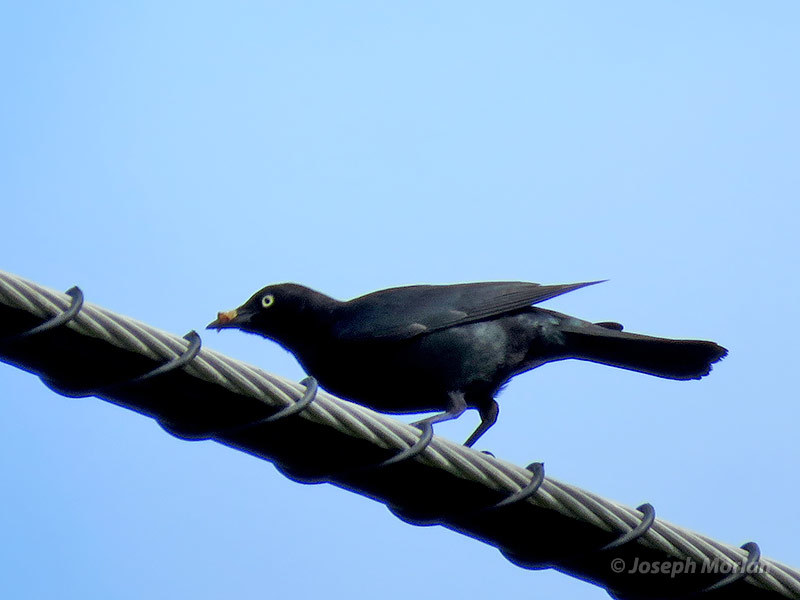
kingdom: Animalia
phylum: Chordata
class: Aves
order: Passeriformes
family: Icteridae
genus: Euphagus
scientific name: Euphagus cyanocephalus
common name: Brewer's blackbird
